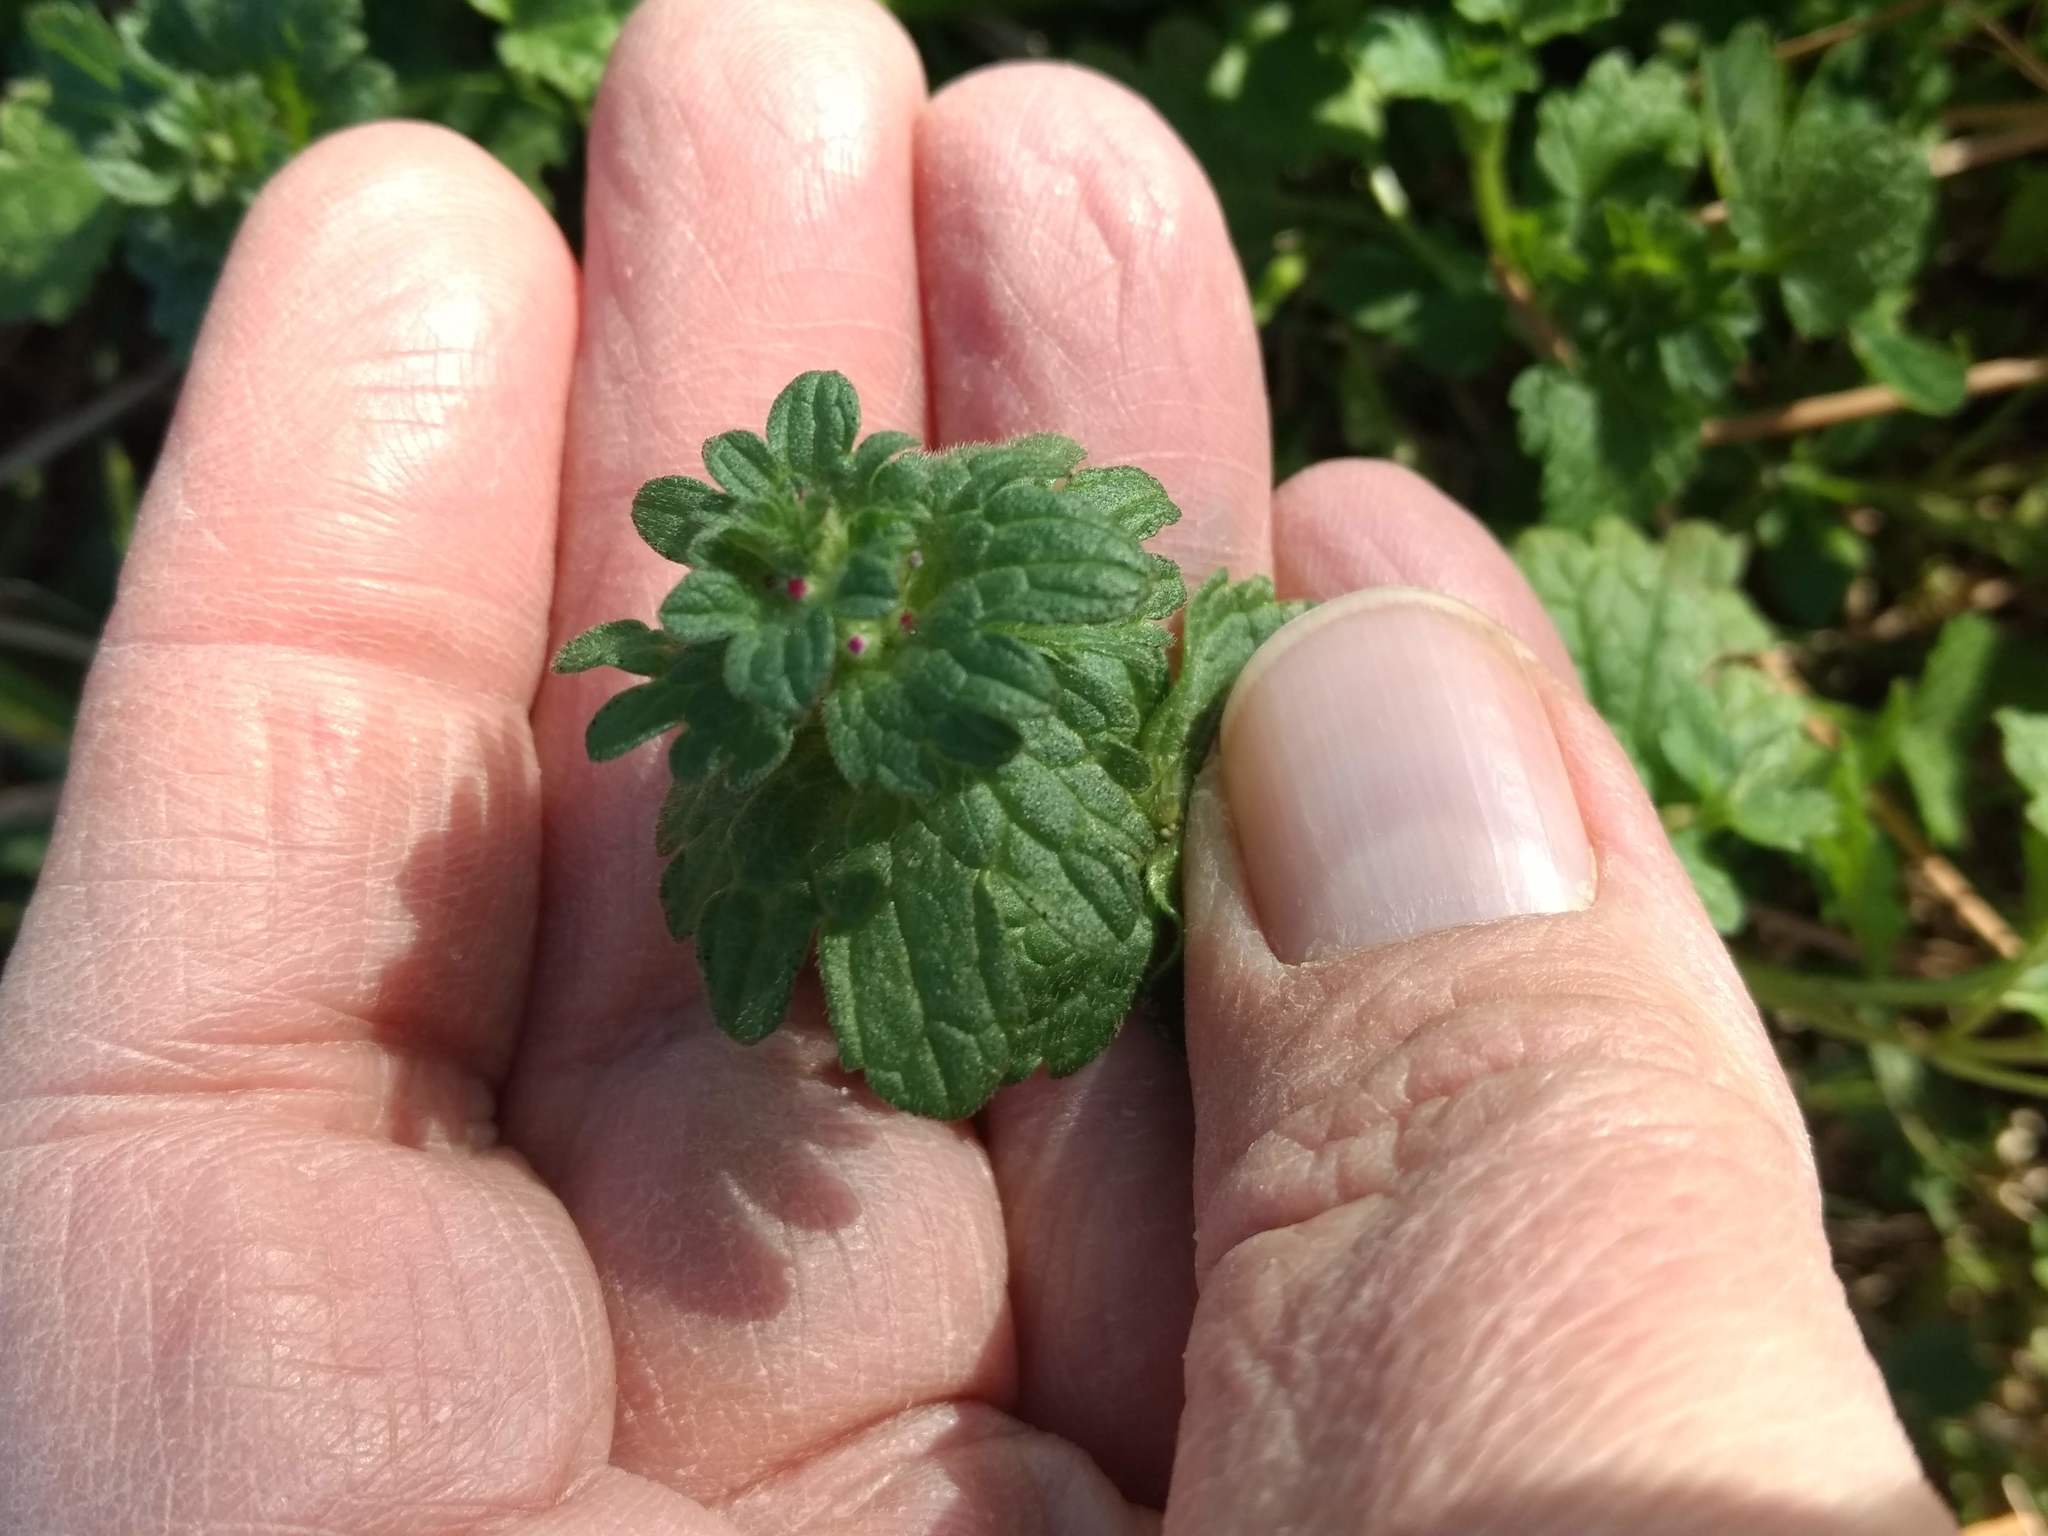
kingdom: Plantae
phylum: Tracheophyta
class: Magnoliopsida
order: Lamiales
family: Lamiaceae
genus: Lamium
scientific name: Lamium amplexicaule
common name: Henbit dead-nettle
